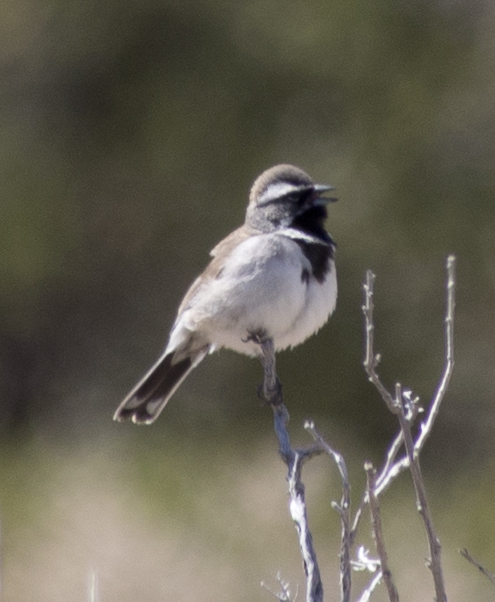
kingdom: Animalia
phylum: Chordata
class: Aves
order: Passeriformes
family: Passerellidae
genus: Amphispiza
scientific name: Amphispiza bilineata
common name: Black-throated sparrow
